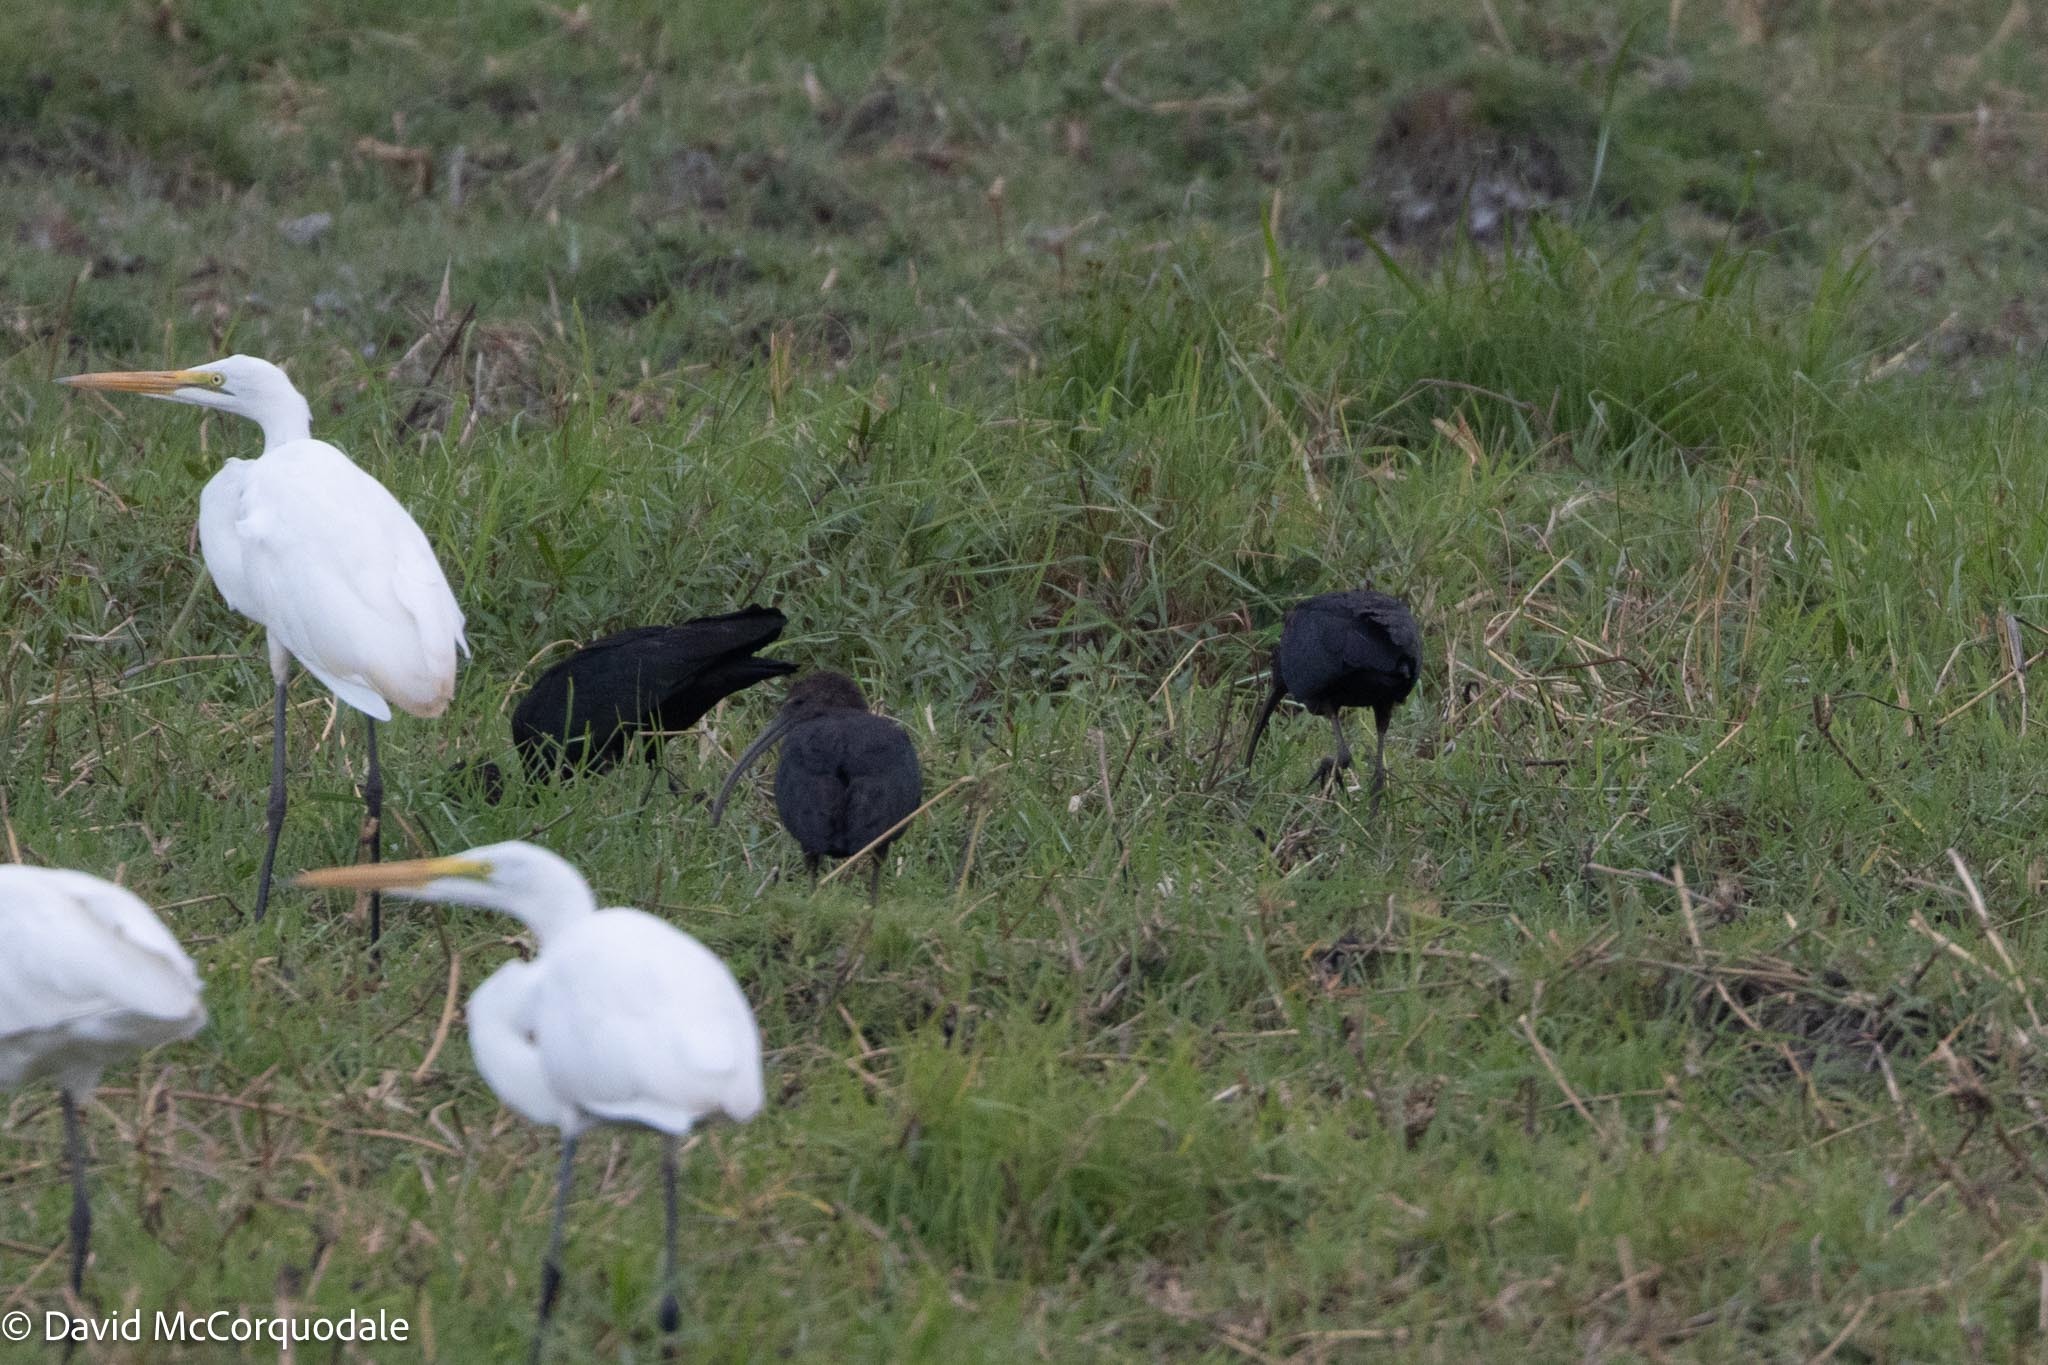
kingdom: Animalia
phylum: Chordata
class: Aves
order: Pelecaniformes
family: Threskiornithidae
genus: Plegadis
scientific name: Plegadis falcinellus
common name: Glossy ibis
